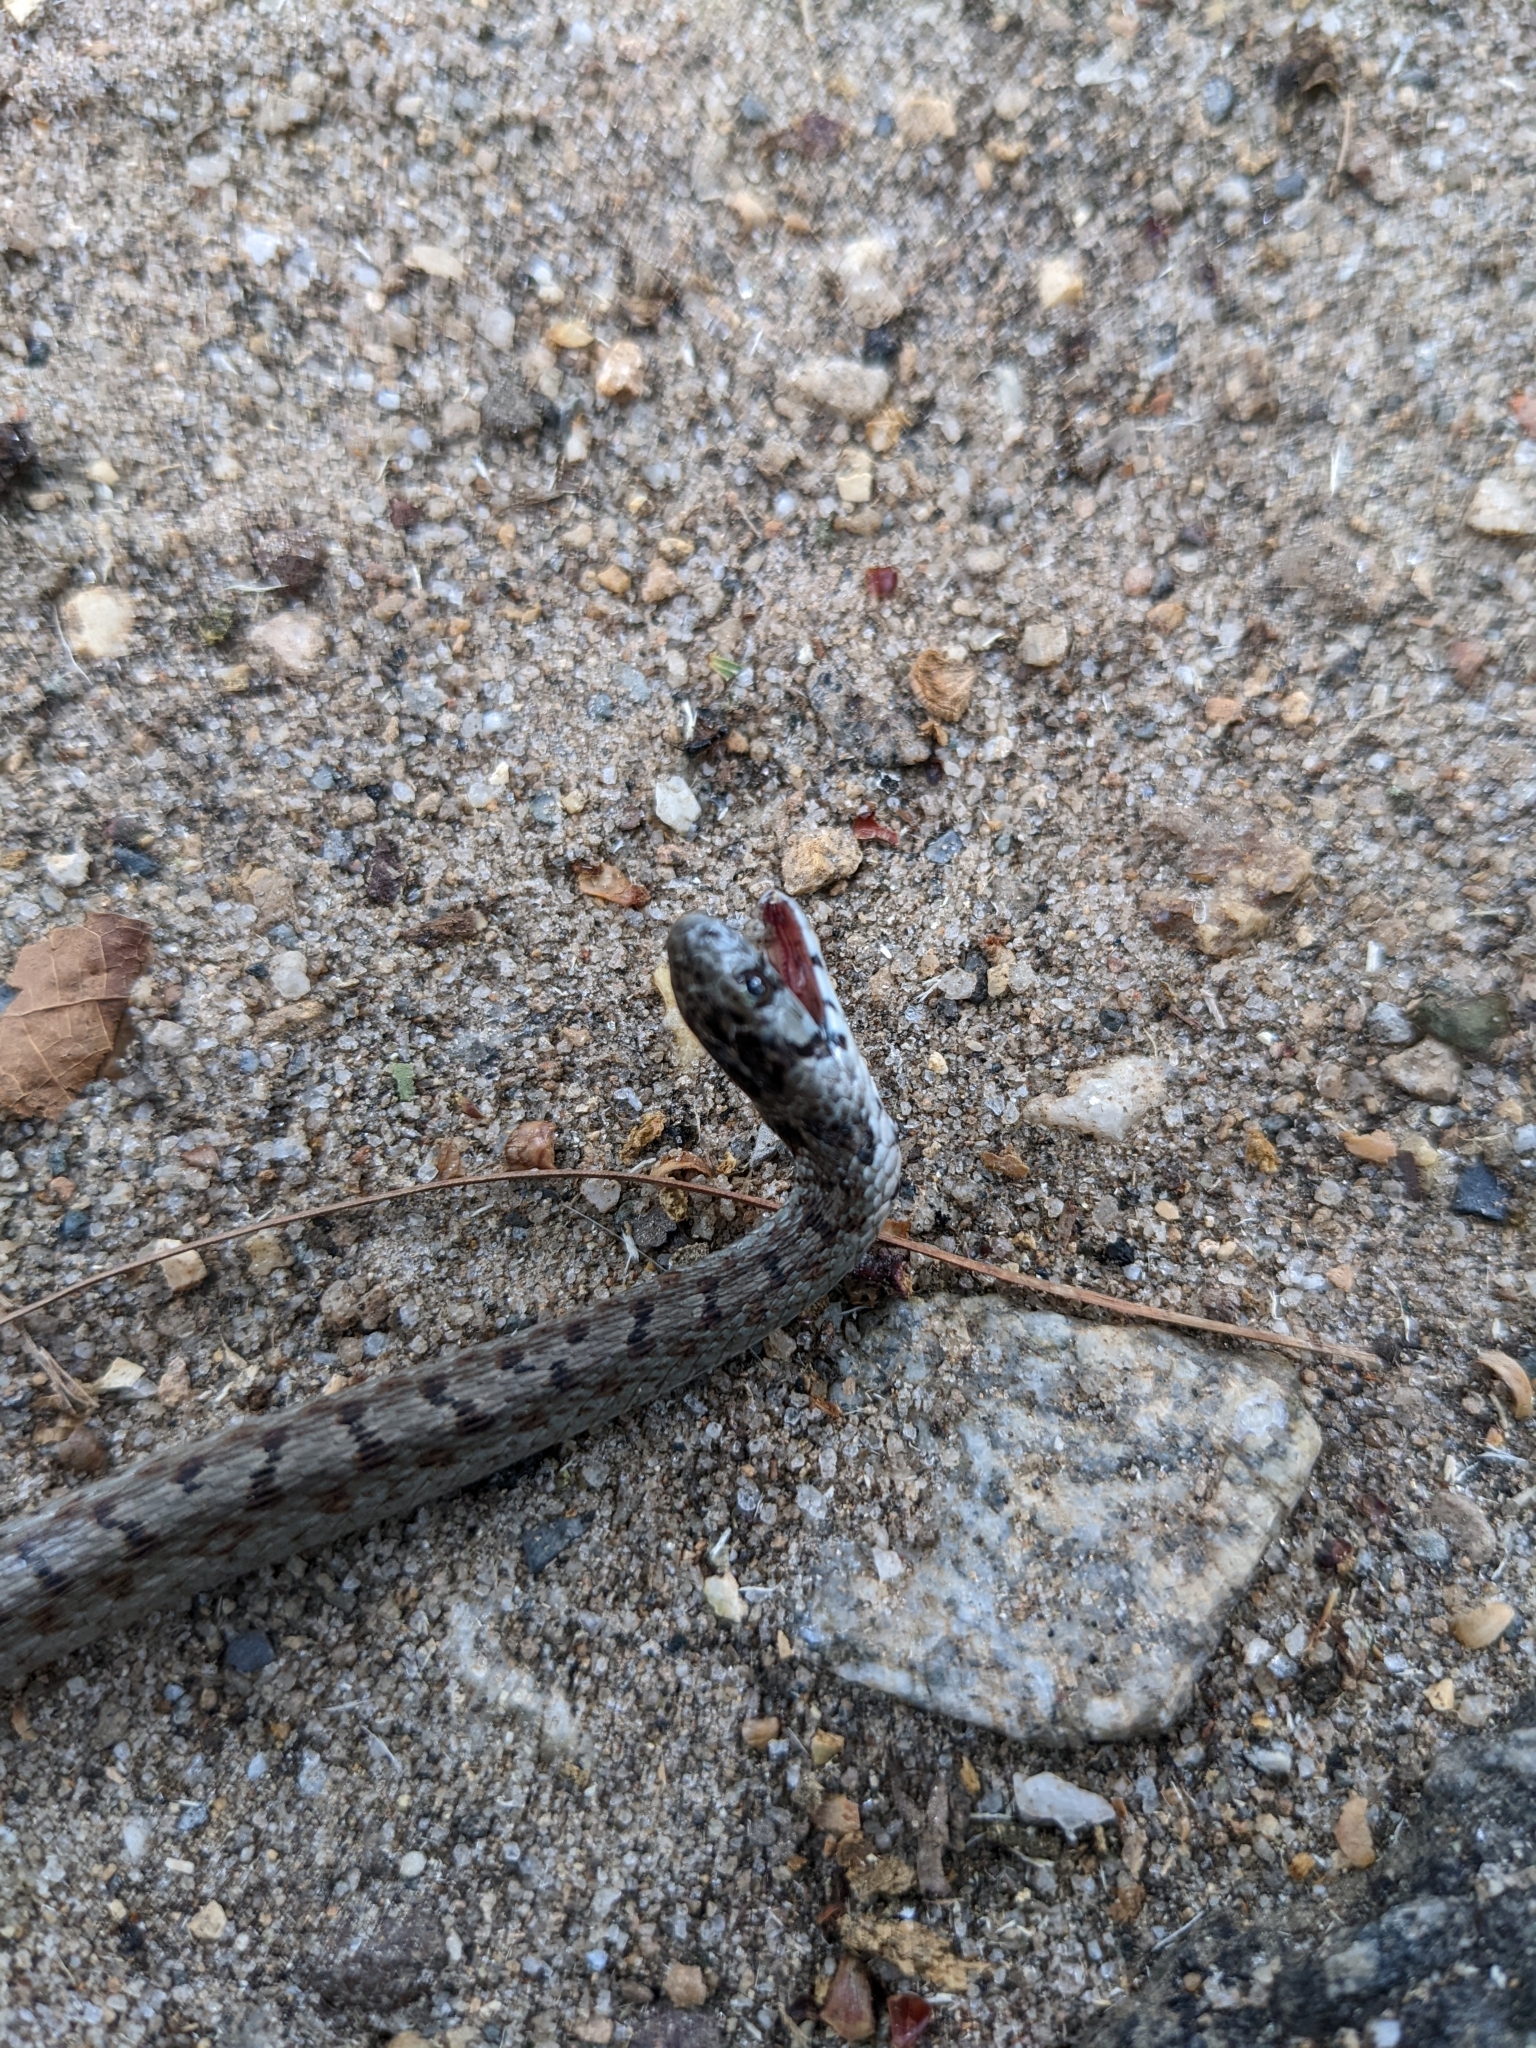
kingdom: Animalia
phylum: Chordata
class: Squamata
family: Colubridae
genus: Storeria
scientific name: Storeria dekayi
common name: (dekay’s) brown snake
